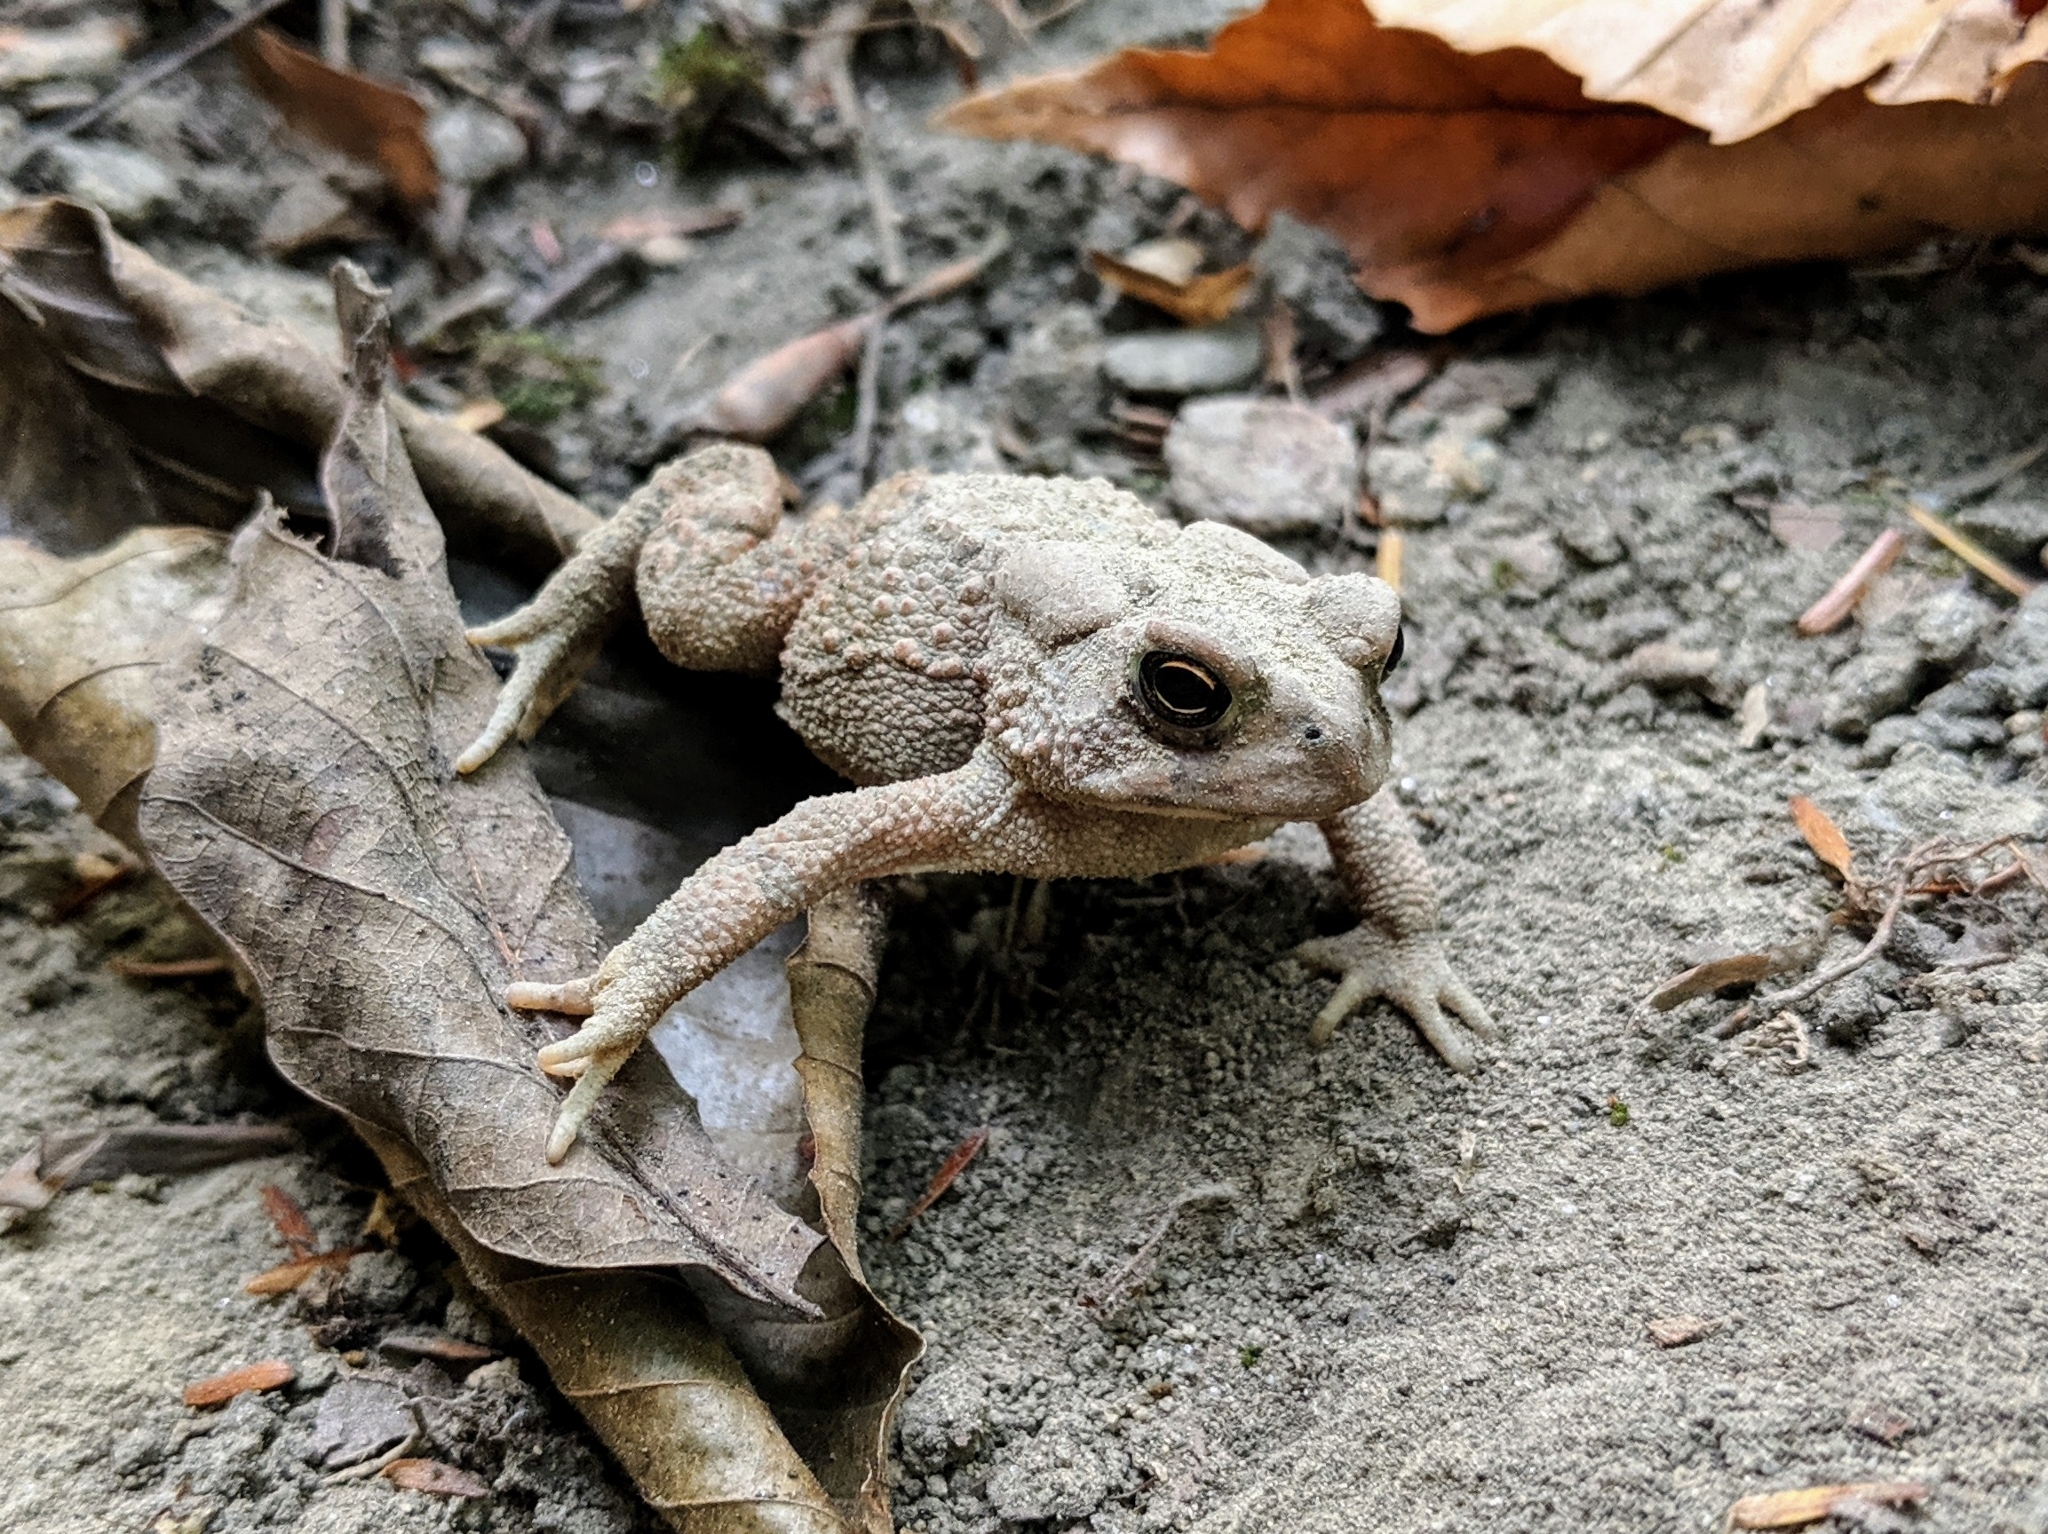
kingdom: Animalia
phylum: Chordata
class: Amphibia
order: Anura
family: Bufonidae
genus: Anaxyrus
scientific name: Anaxyrus americanus
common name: American toad
